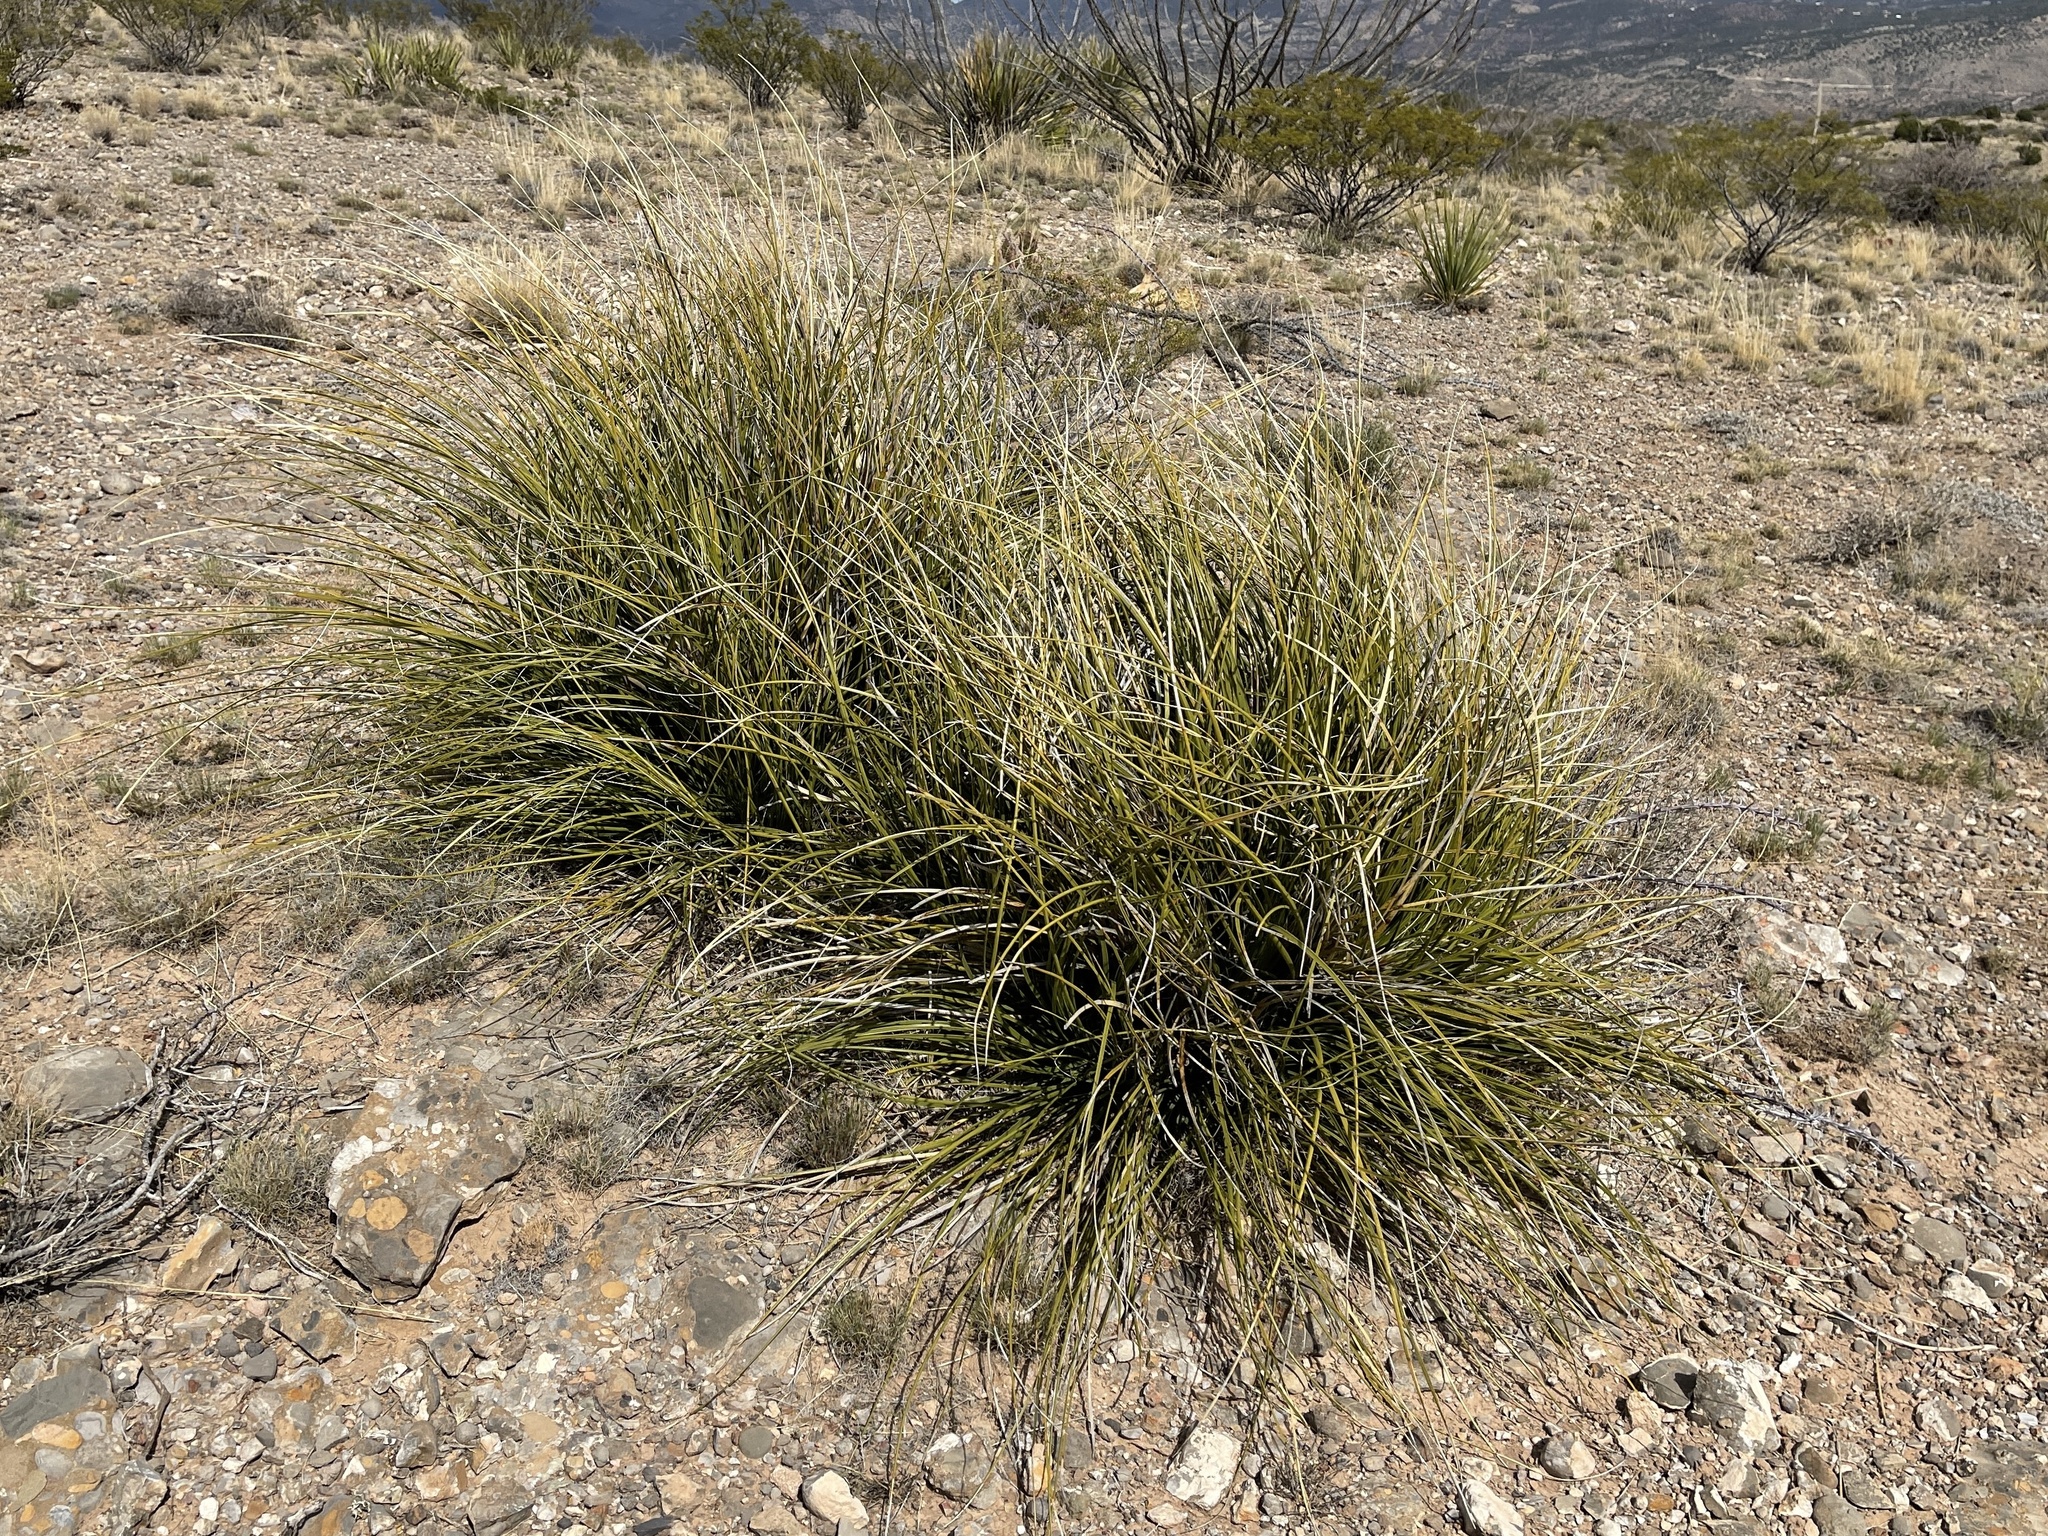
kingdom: Plantae
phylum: Tracheophyta
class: Liliopsida
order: Asparagales
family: Asparagaceae
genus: Nolina
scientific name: Nolina texana
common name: Texas sacahuiste
